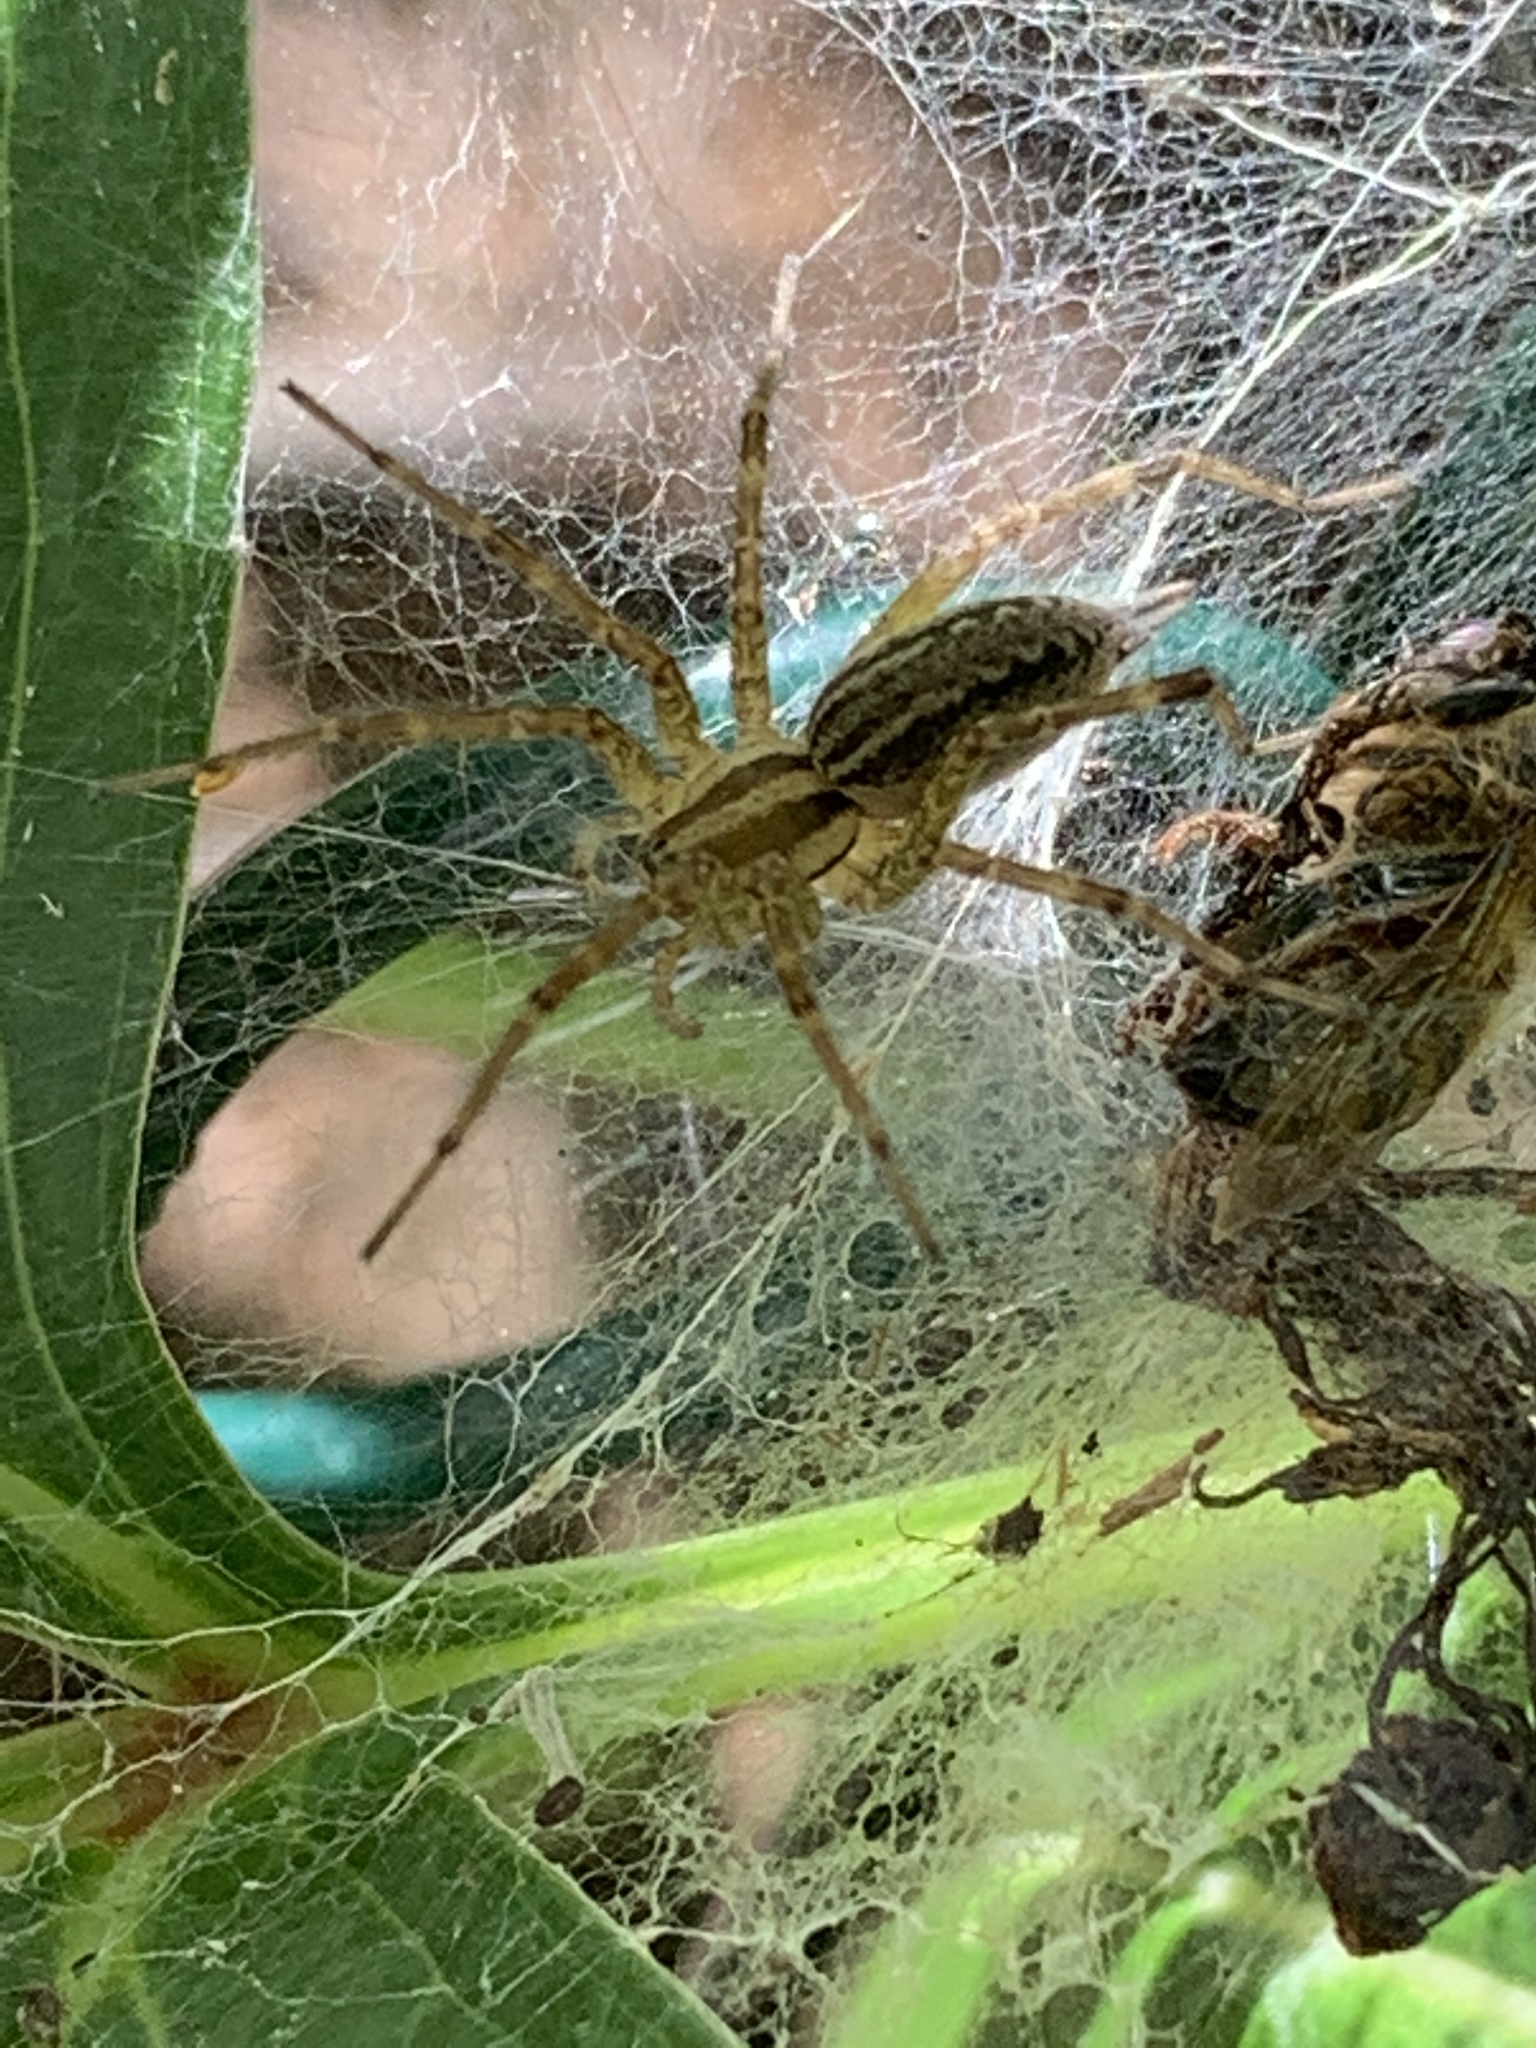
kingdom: Animalia
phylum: Arthropoda
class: Arachnida
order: Araneae
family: Agelenidae
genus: Agelenopsis
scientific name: Agelenopsis
